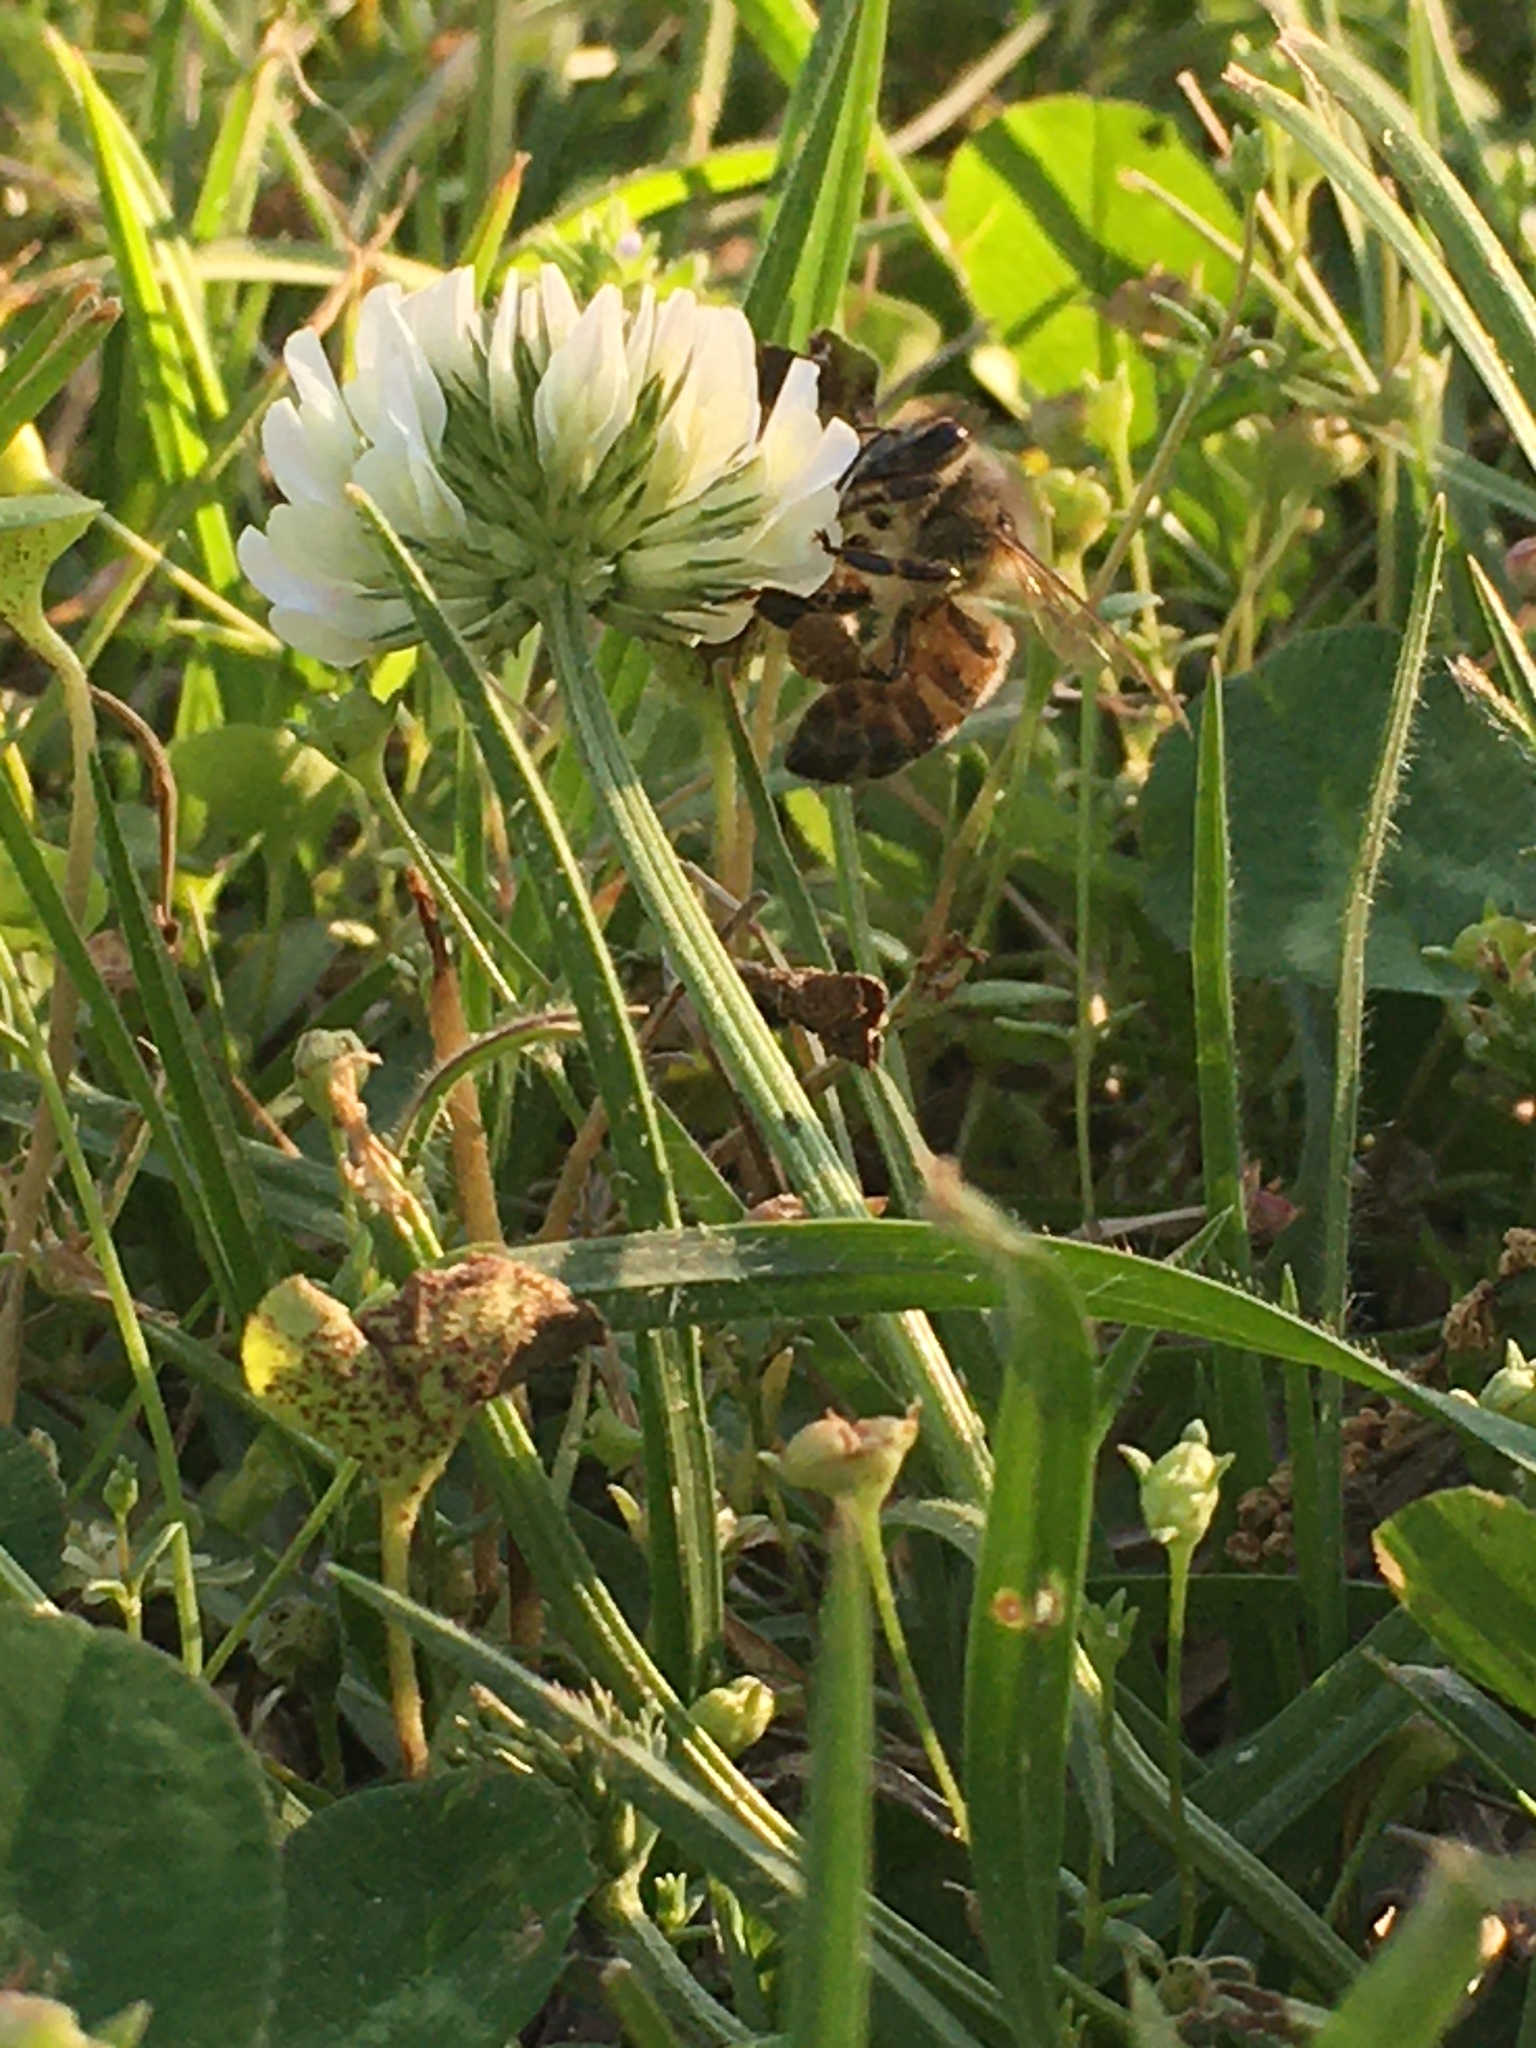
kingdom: Animalia
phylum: Arthropoda
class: Insecta
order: Hymenoptera
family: Apidae
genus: Apis
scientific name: Apis mellifera
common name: Honey bee
